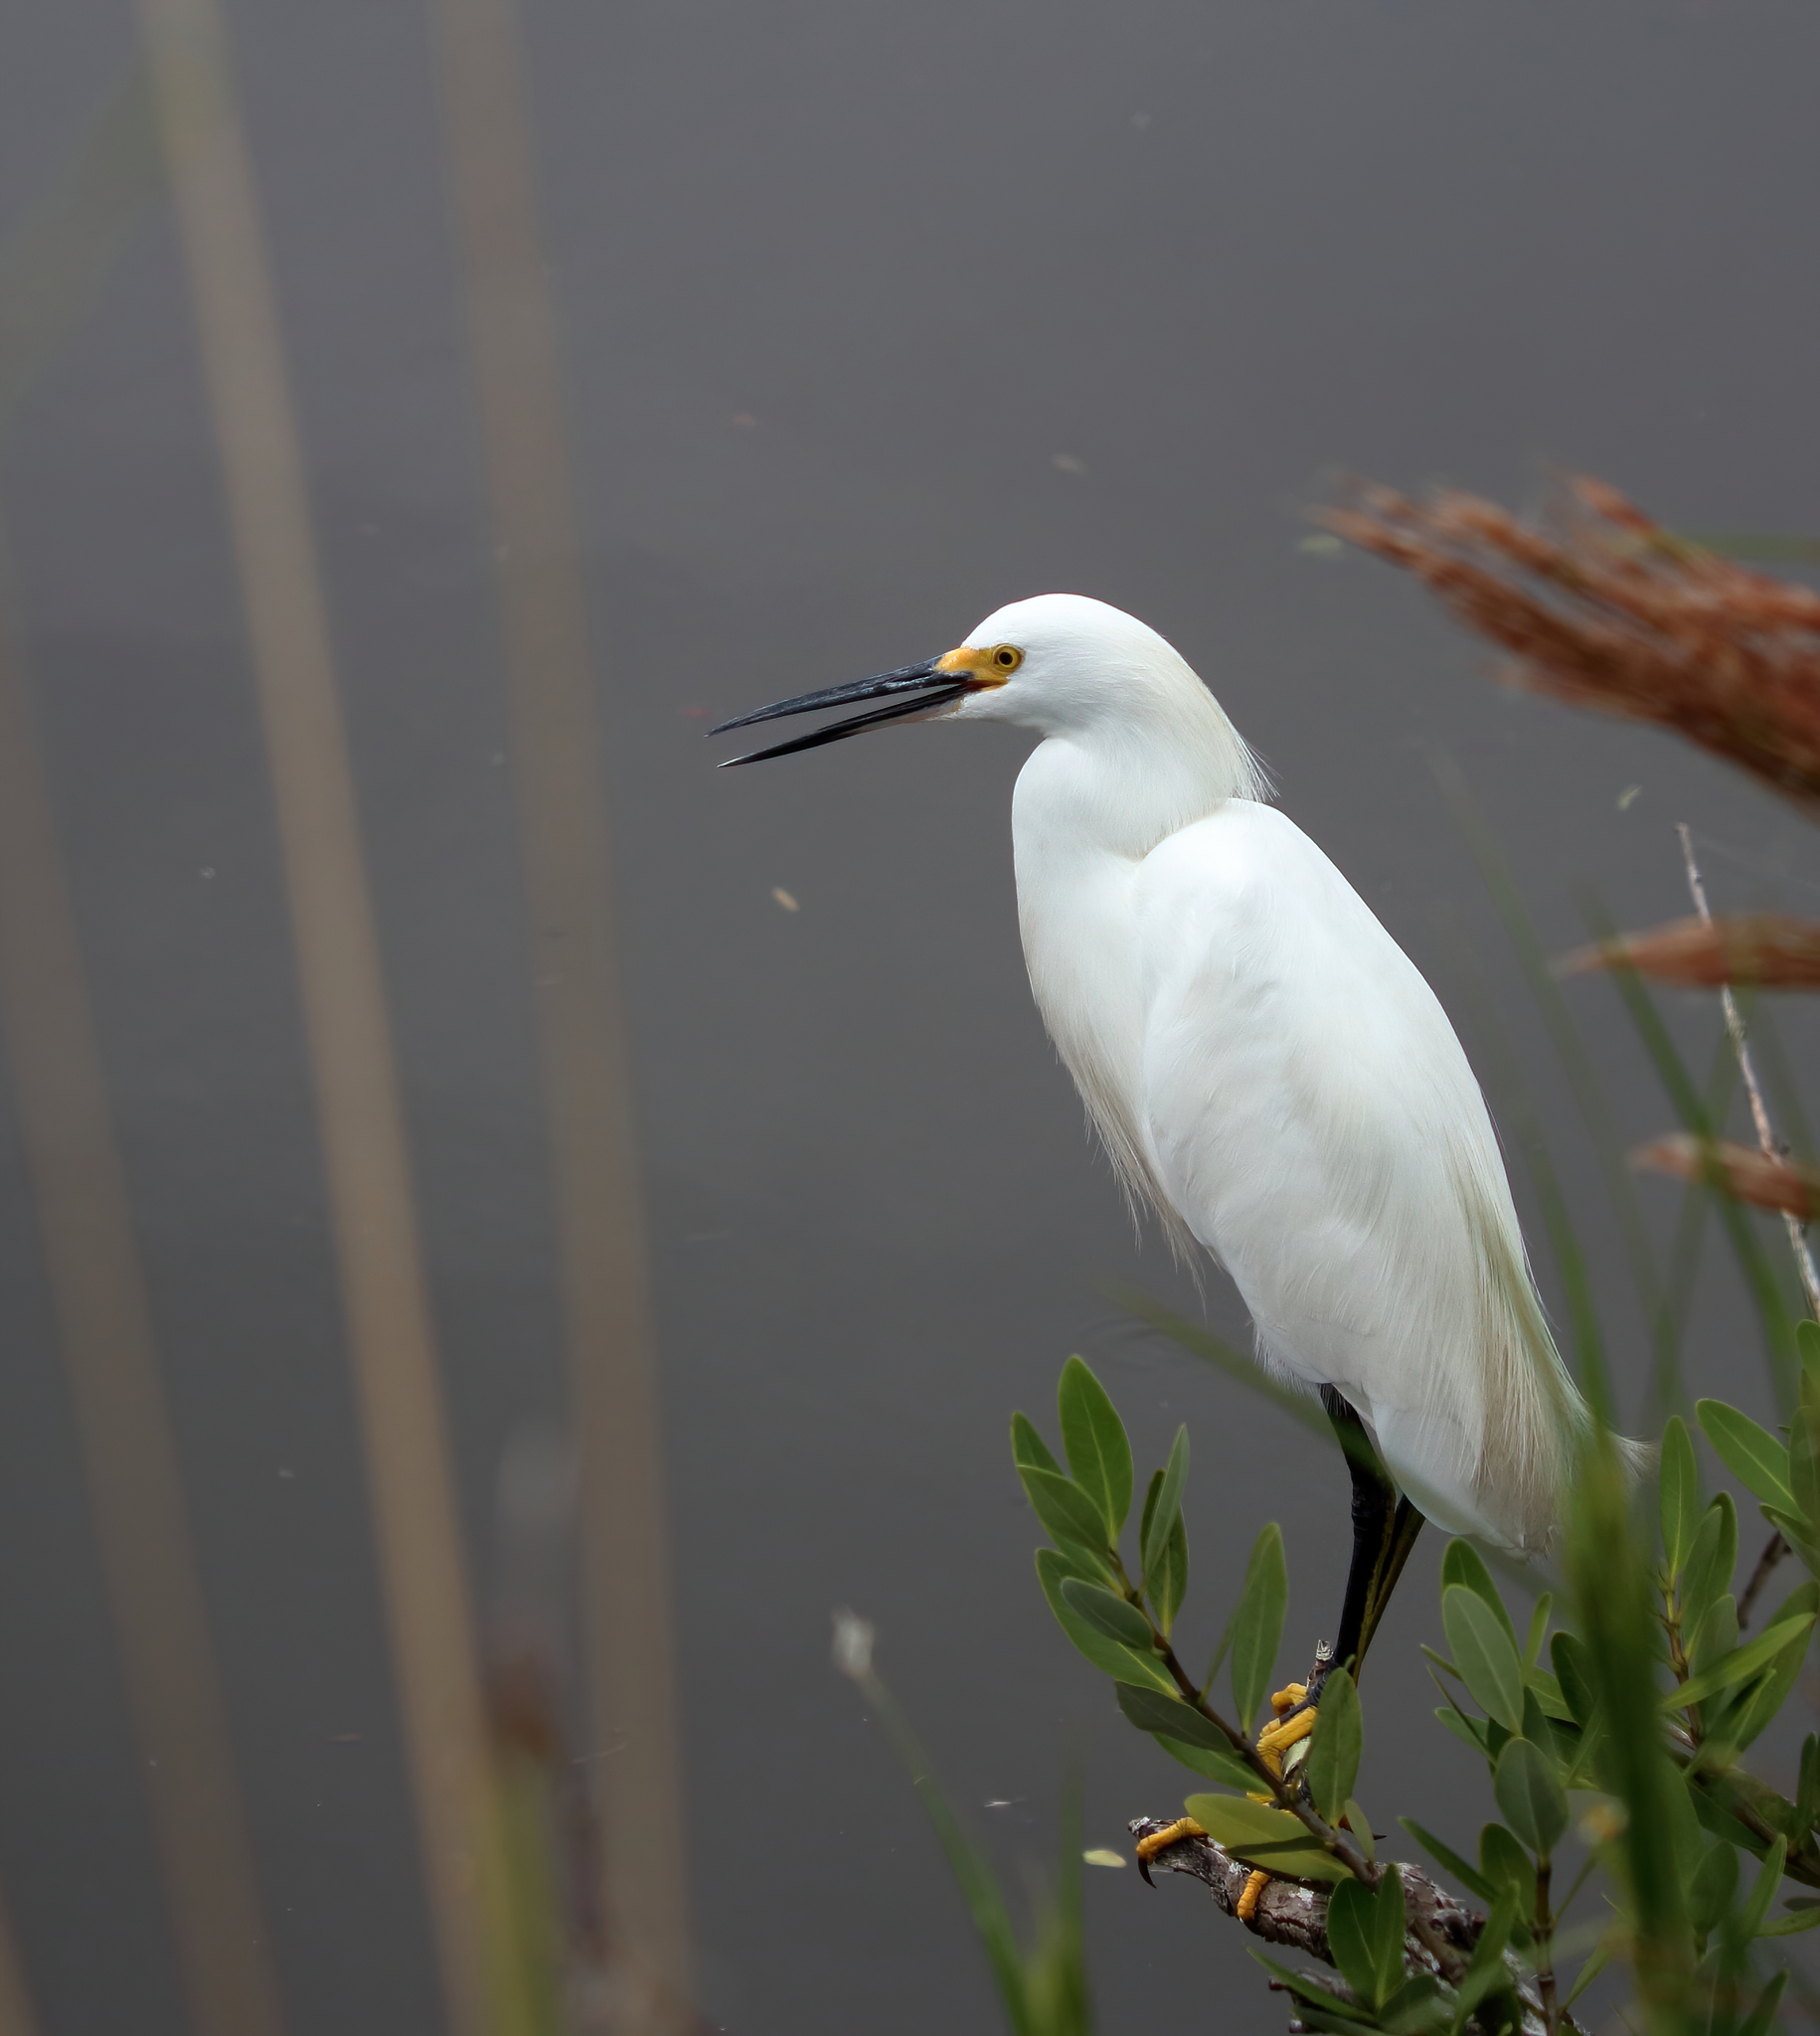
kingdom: Animalia
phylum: Chordata
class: Aves
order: Pelecaniformes
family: Ardeidae
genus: Egretta
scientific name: Egretta thula
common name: Snowy egret
